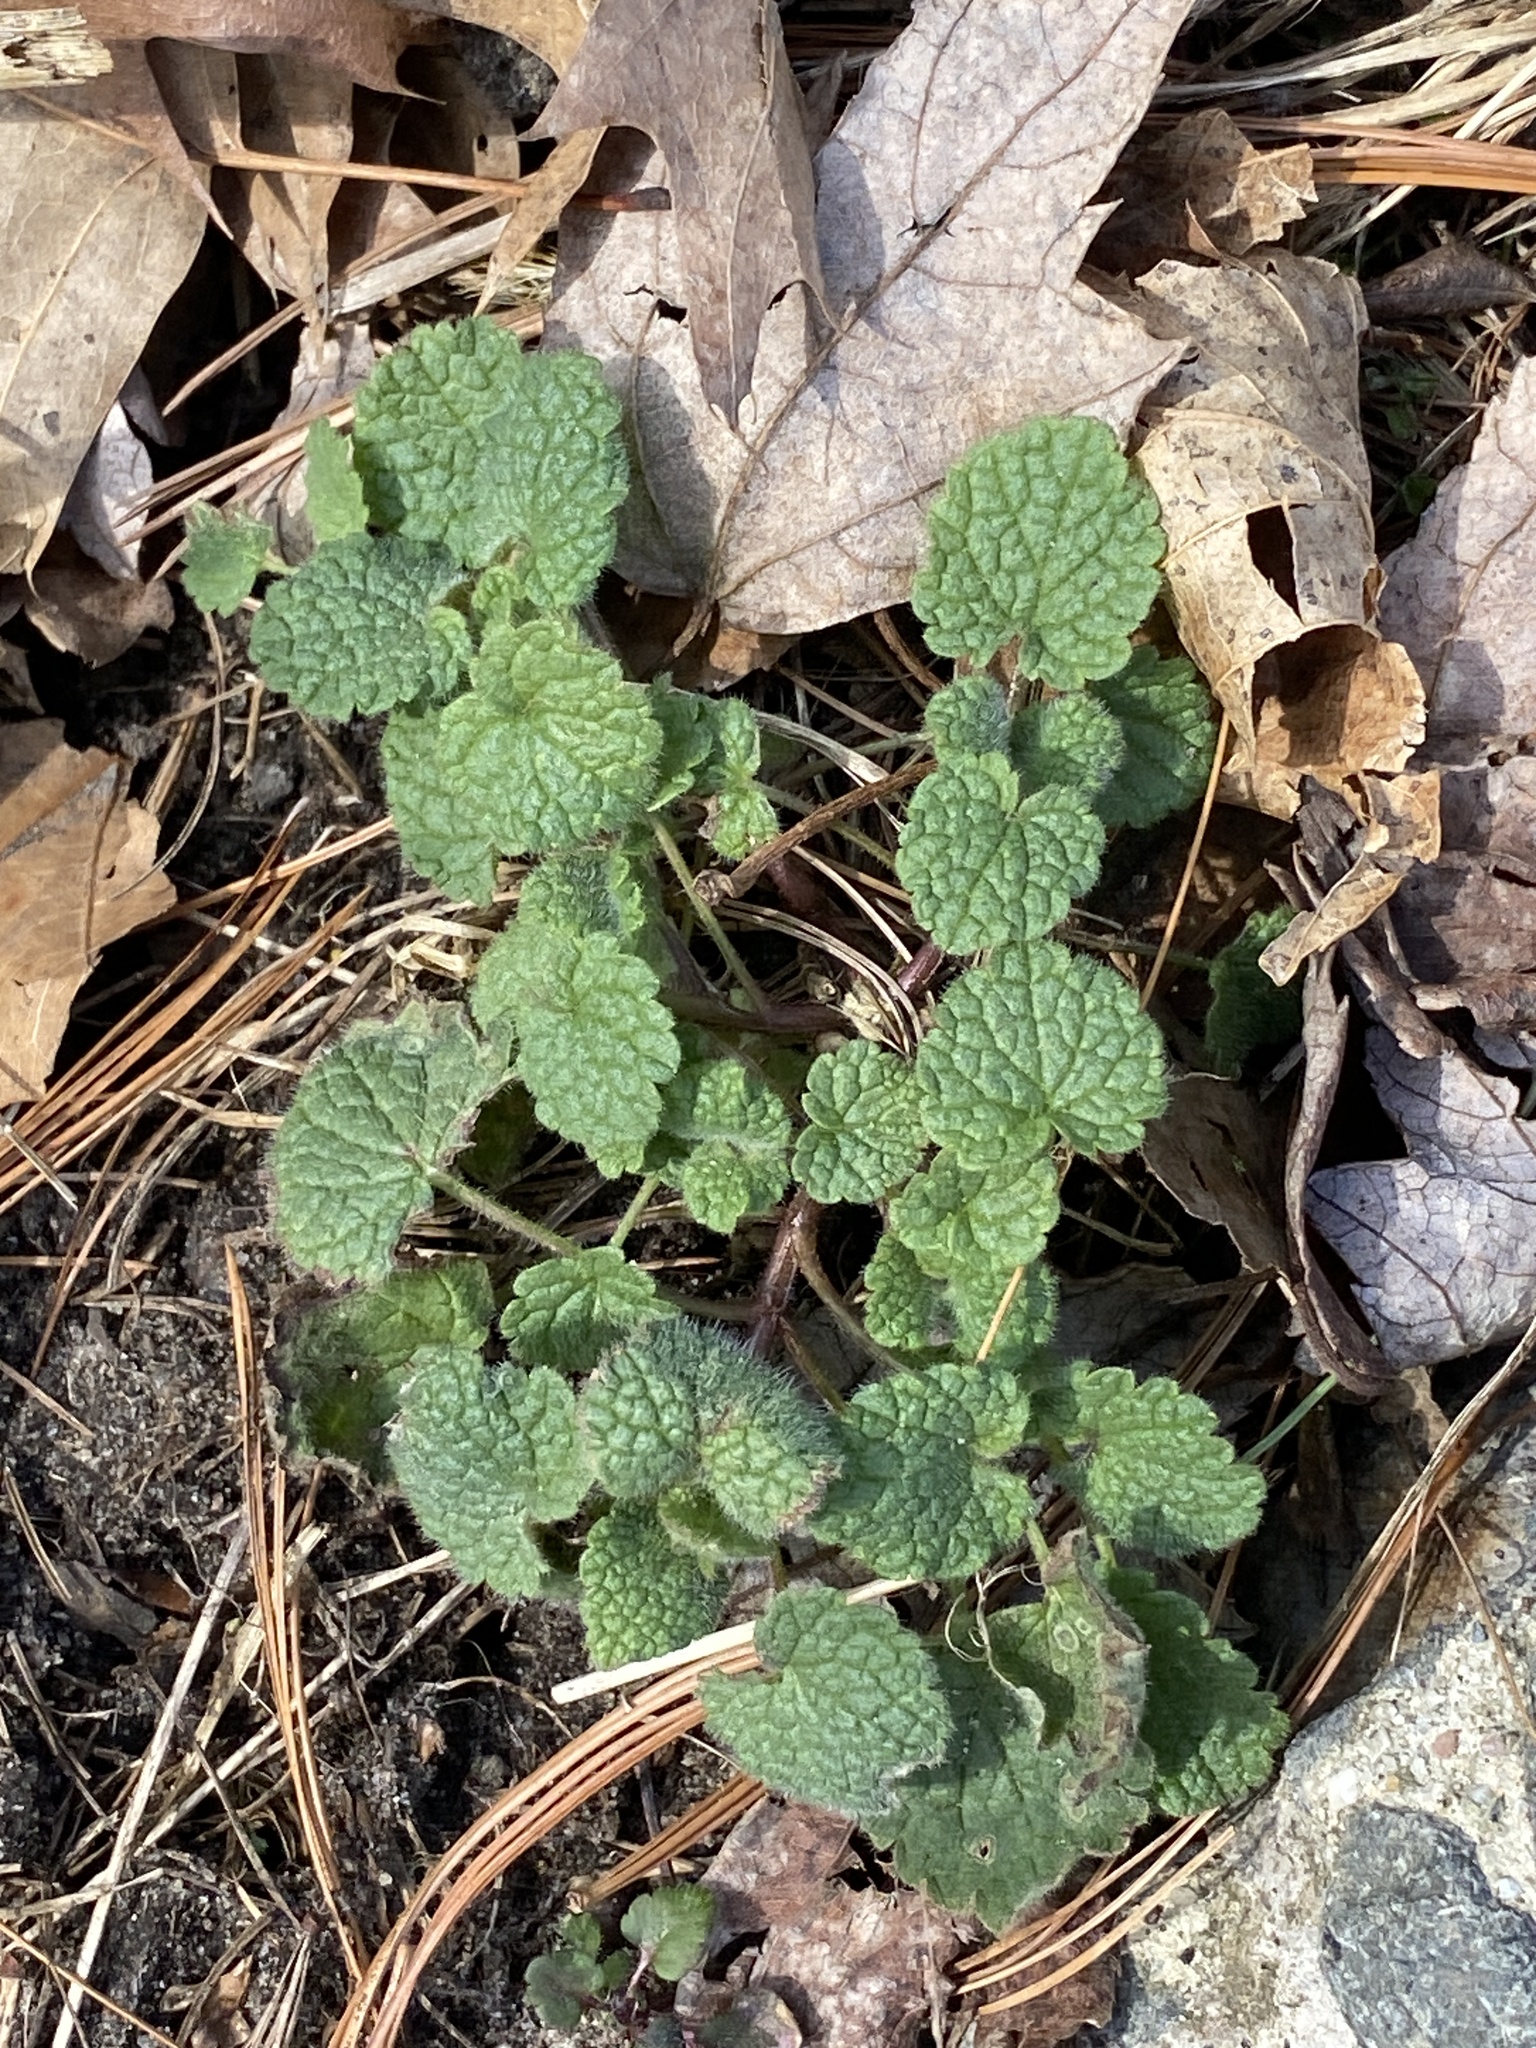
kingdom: Plantae
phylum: Tracheophyta
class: Magnoliopsida
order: Lamiales
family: Lamiaceae
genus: Lamium
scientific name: Lamium purpureum
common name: Red dead-nettle
